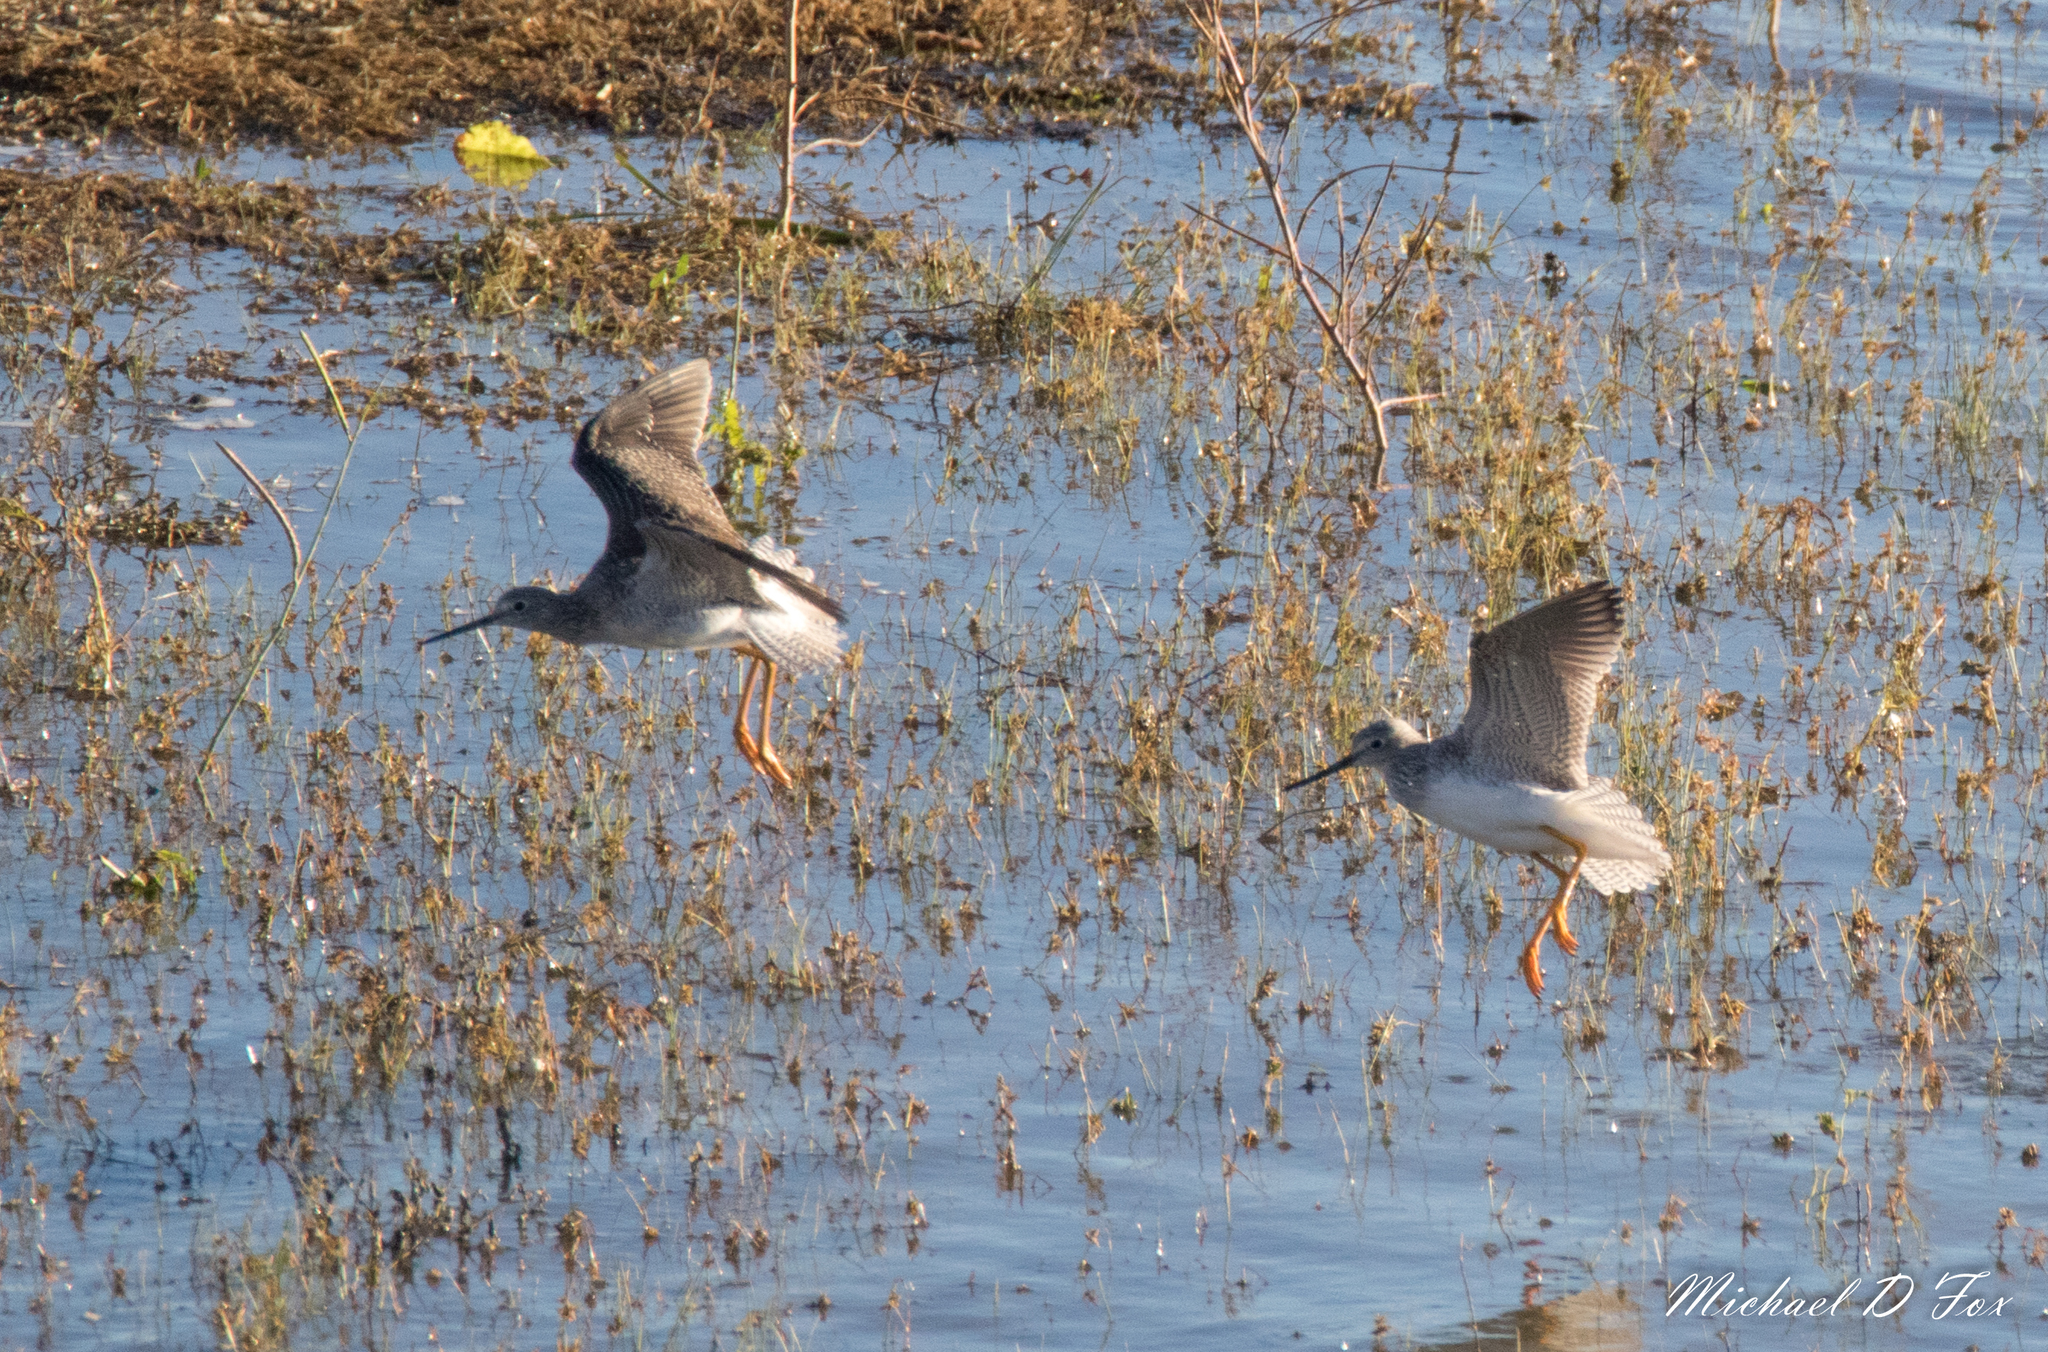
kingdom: Animalia
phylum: Chordata
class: Aves
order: Charadriiformes
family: Scolopacidae
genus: Tringa
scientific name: Tringa melanoleuca
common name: Greater yellowlegs
